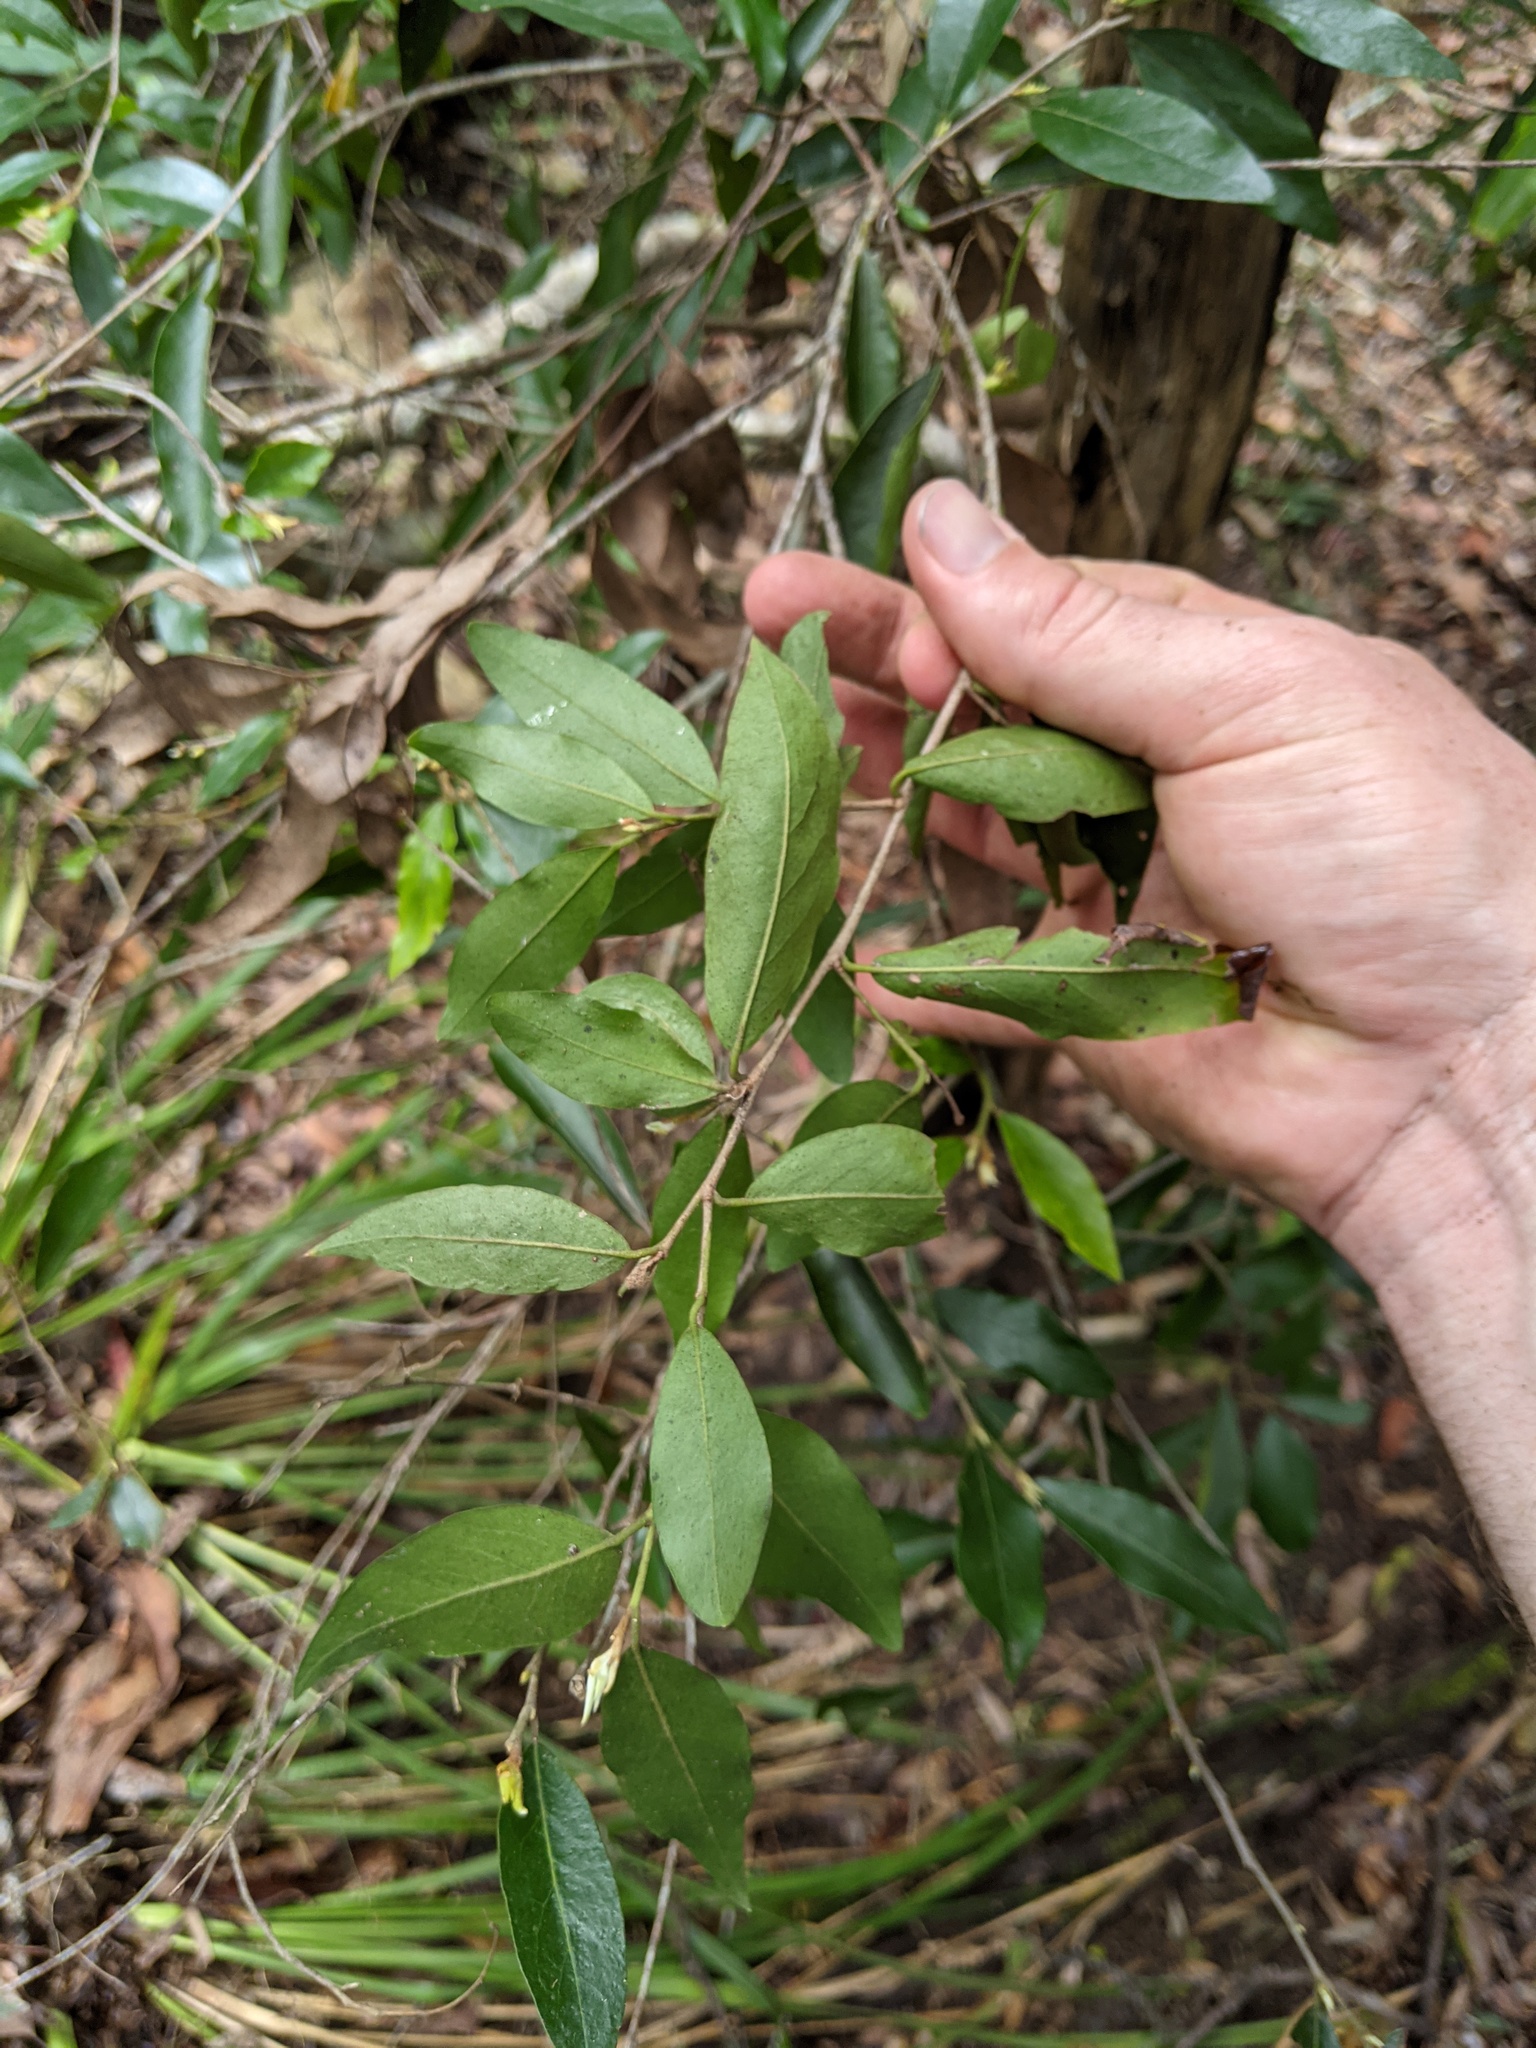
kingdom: Plantae
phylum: Tracheophyta
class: Magnoliopsida
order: Malpighiales
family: Picrodendraceae
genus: Petalostigma
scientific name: Petalostigma triloculare
